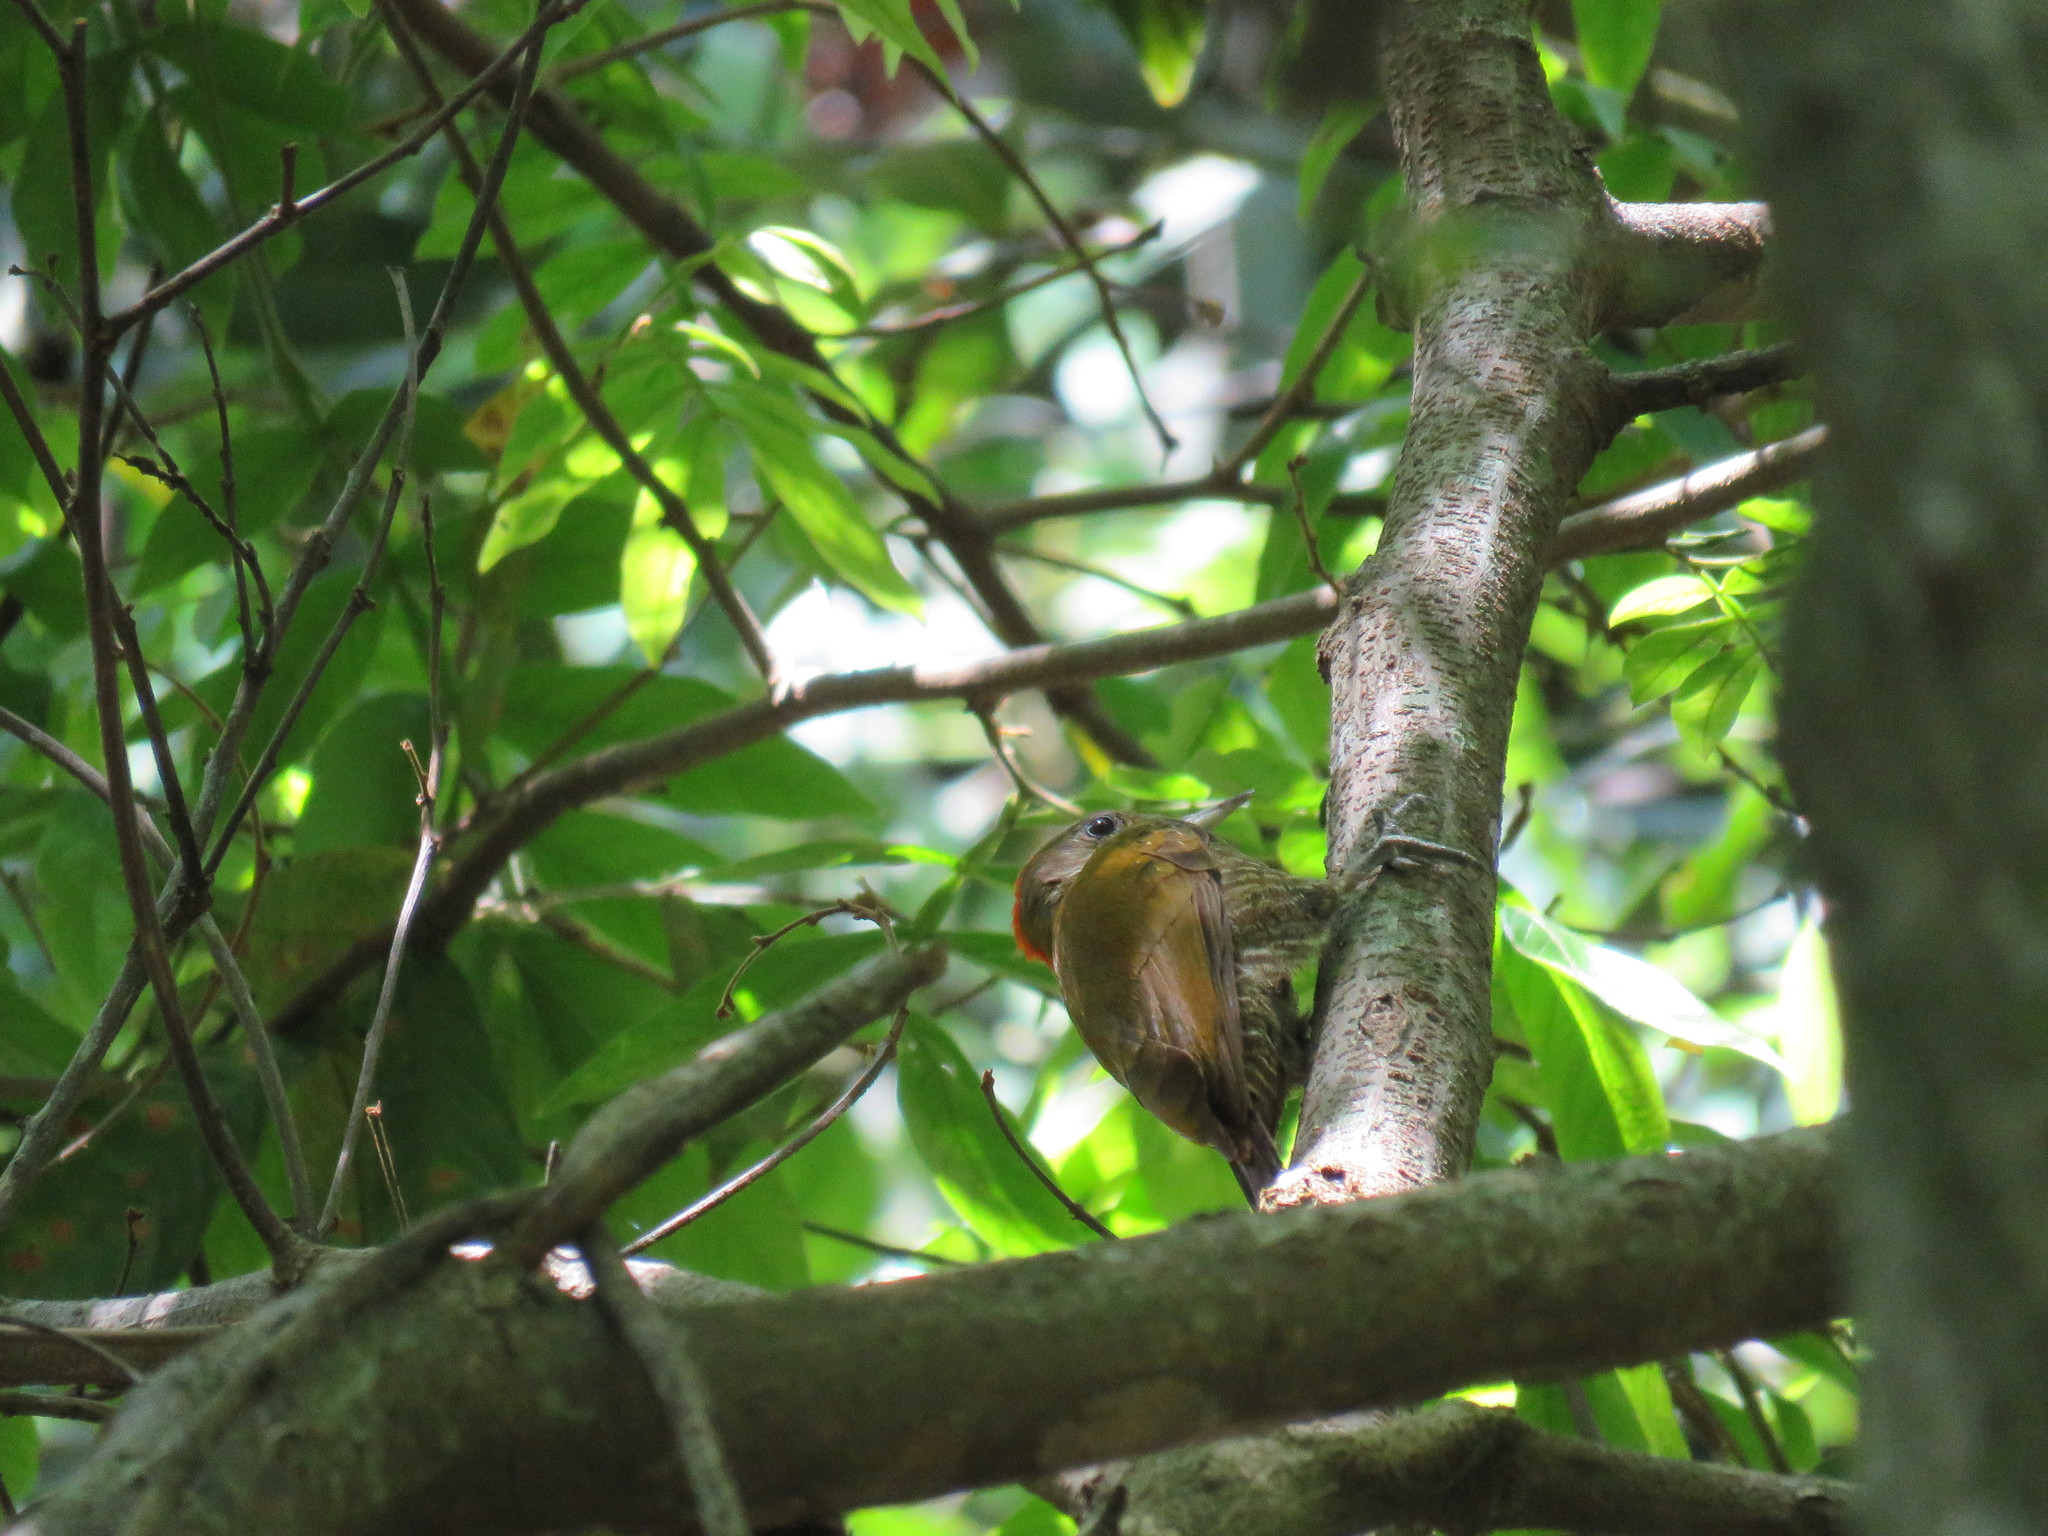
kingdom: Animalia
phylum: Chordata
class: Aves
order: Piciformes
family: Picidae
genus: Veniliornis
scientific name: Veniliornis passerinus
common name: Little woodpecker
